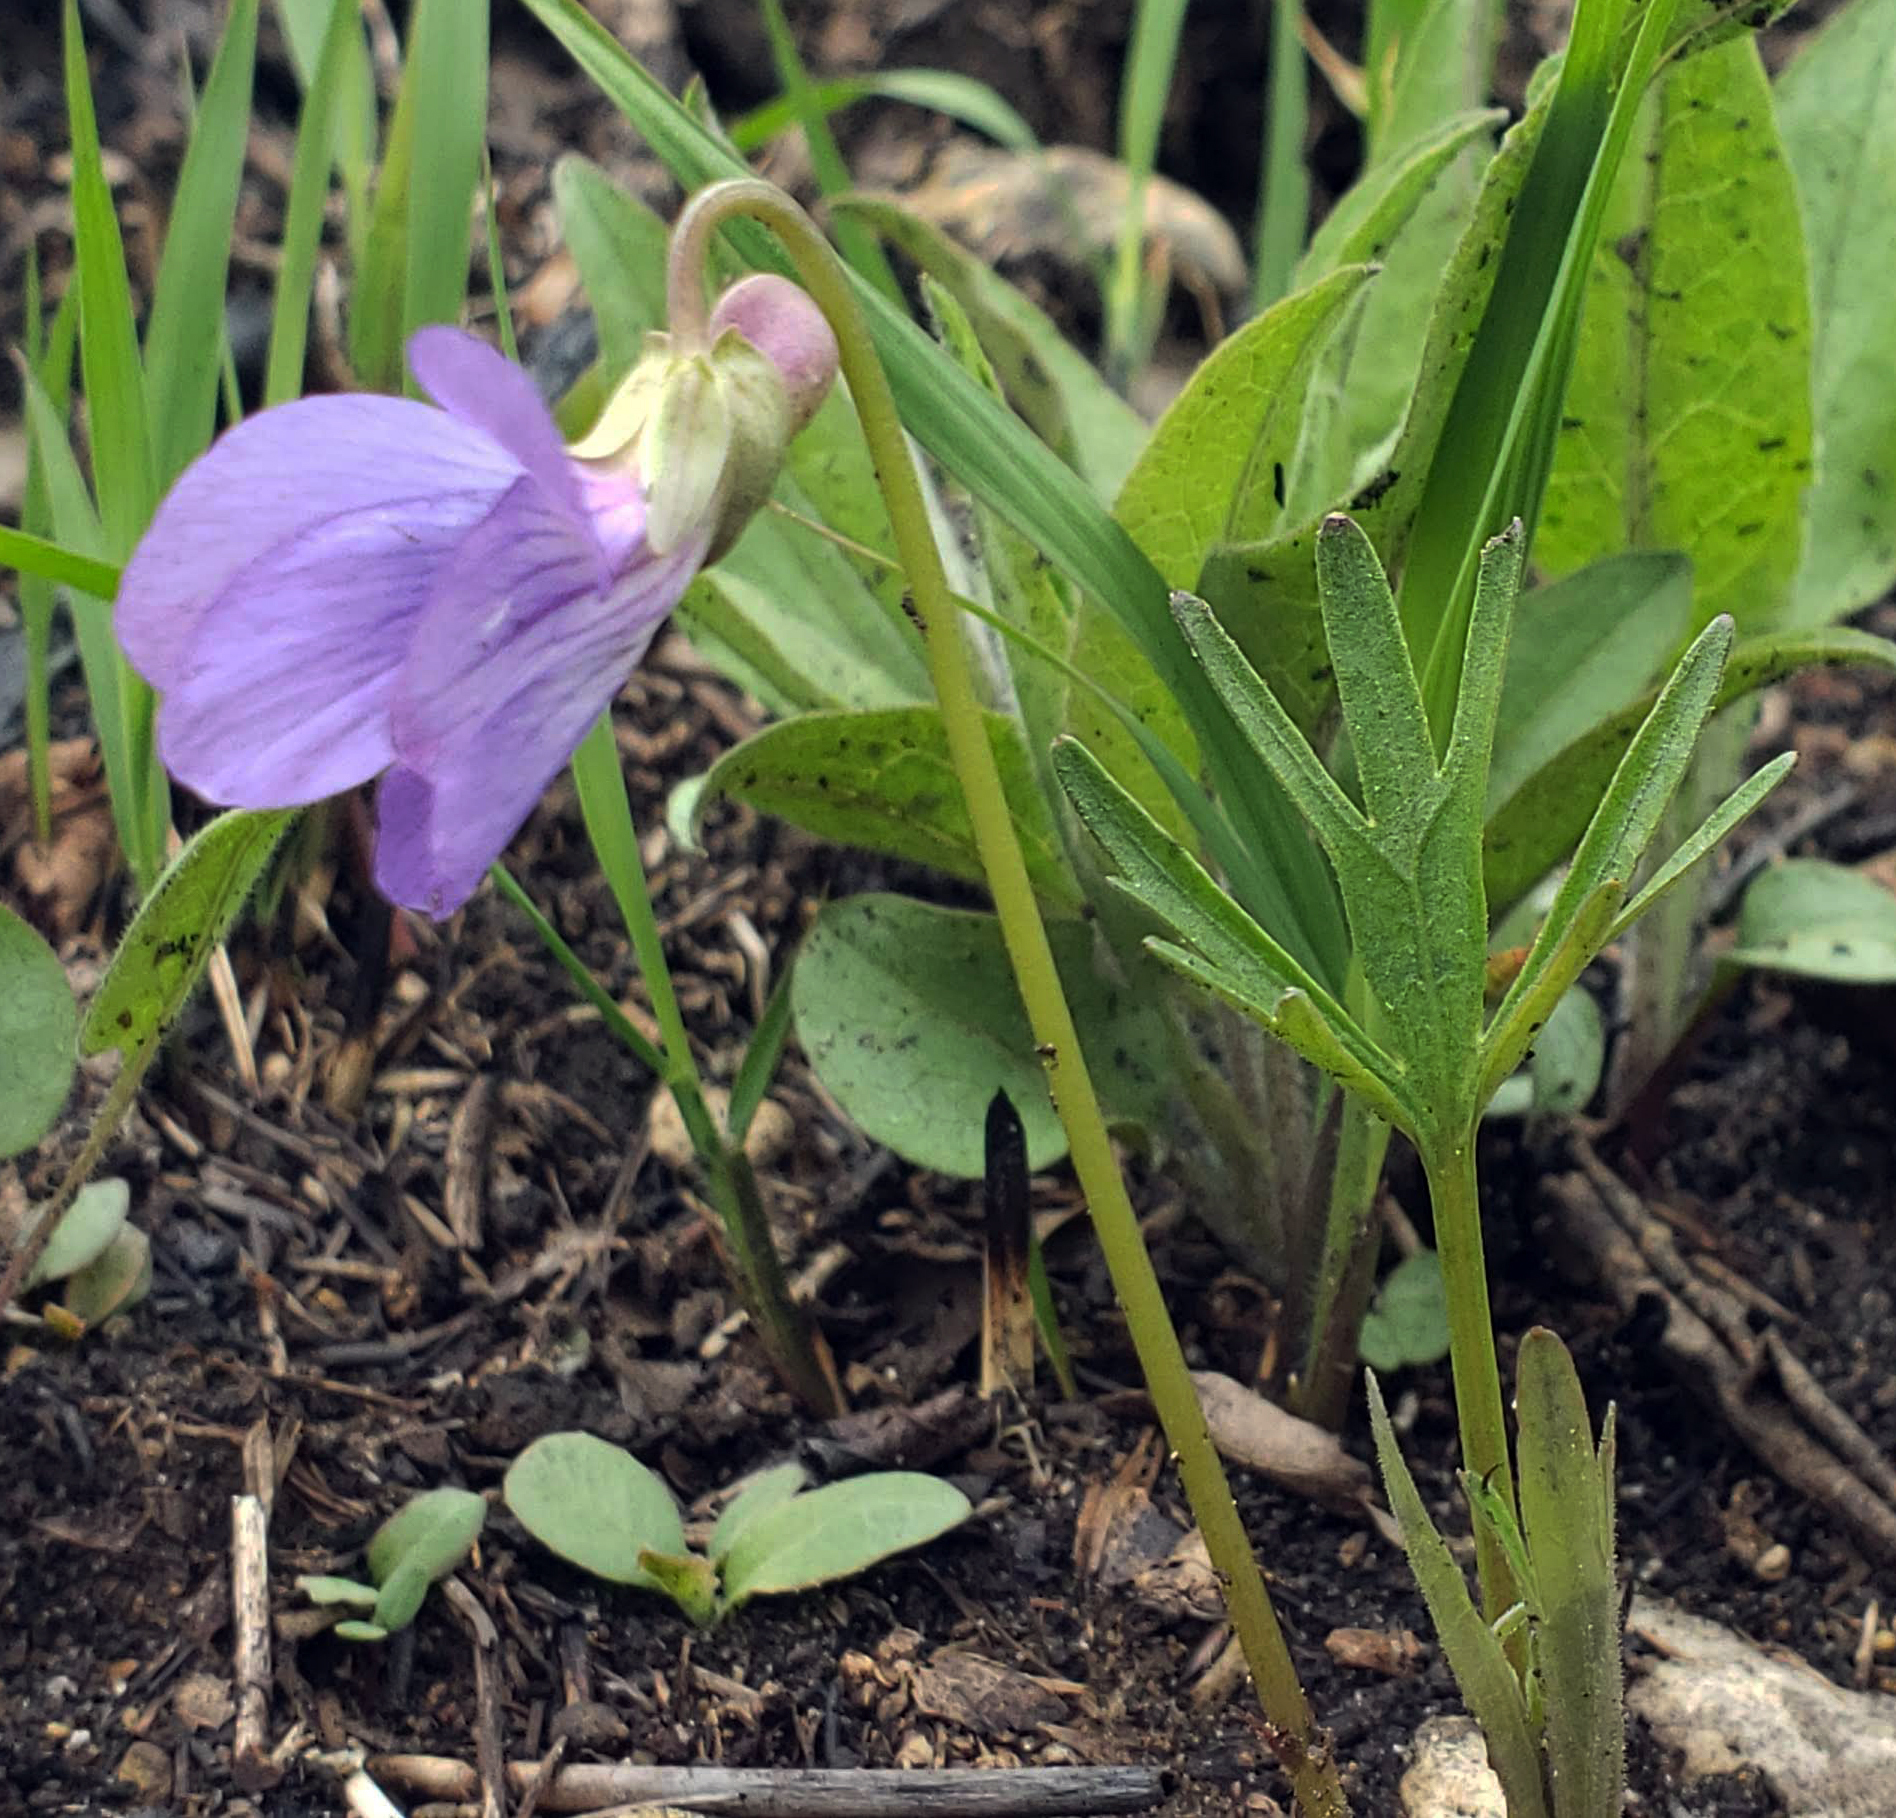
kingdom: Plantae
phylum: Tracheophyta
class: Magnoliopsida
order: Malpighiales
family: Violaceae
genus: Viola
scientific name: Viola pedatifida
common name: Prairie violet
